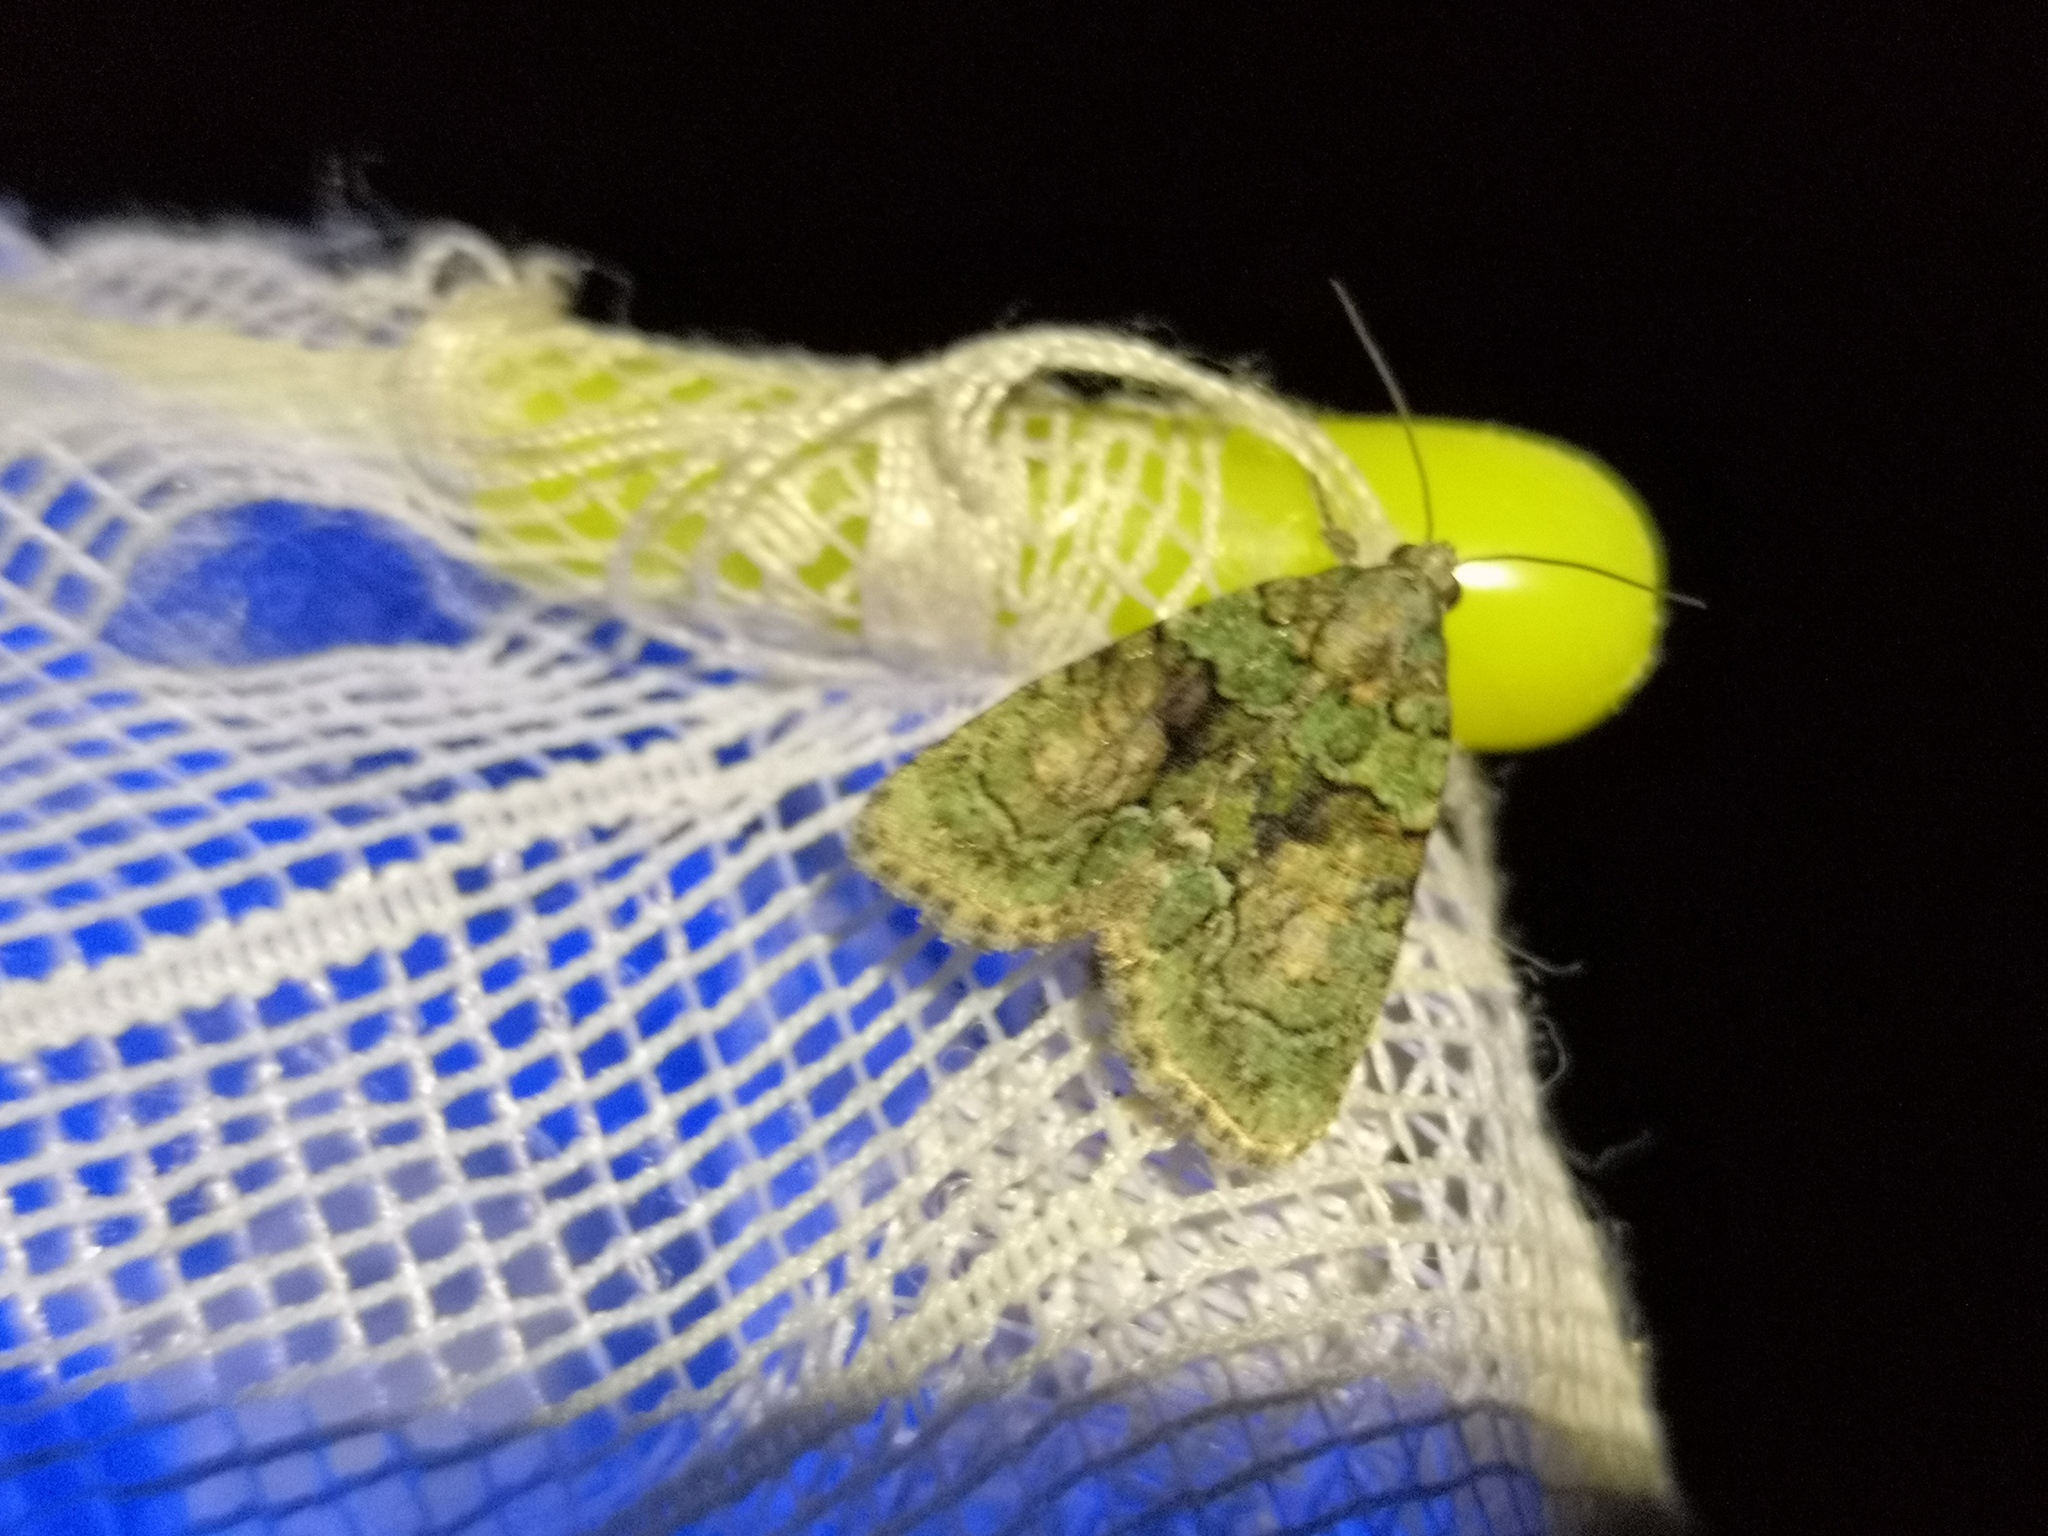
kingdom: Animalia
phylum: Arthropoda
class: Insecta
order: Lepidoptera
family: Noctuidae
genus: Cryphia
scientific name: Cryphia algae
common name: Tree-lichen beauty
